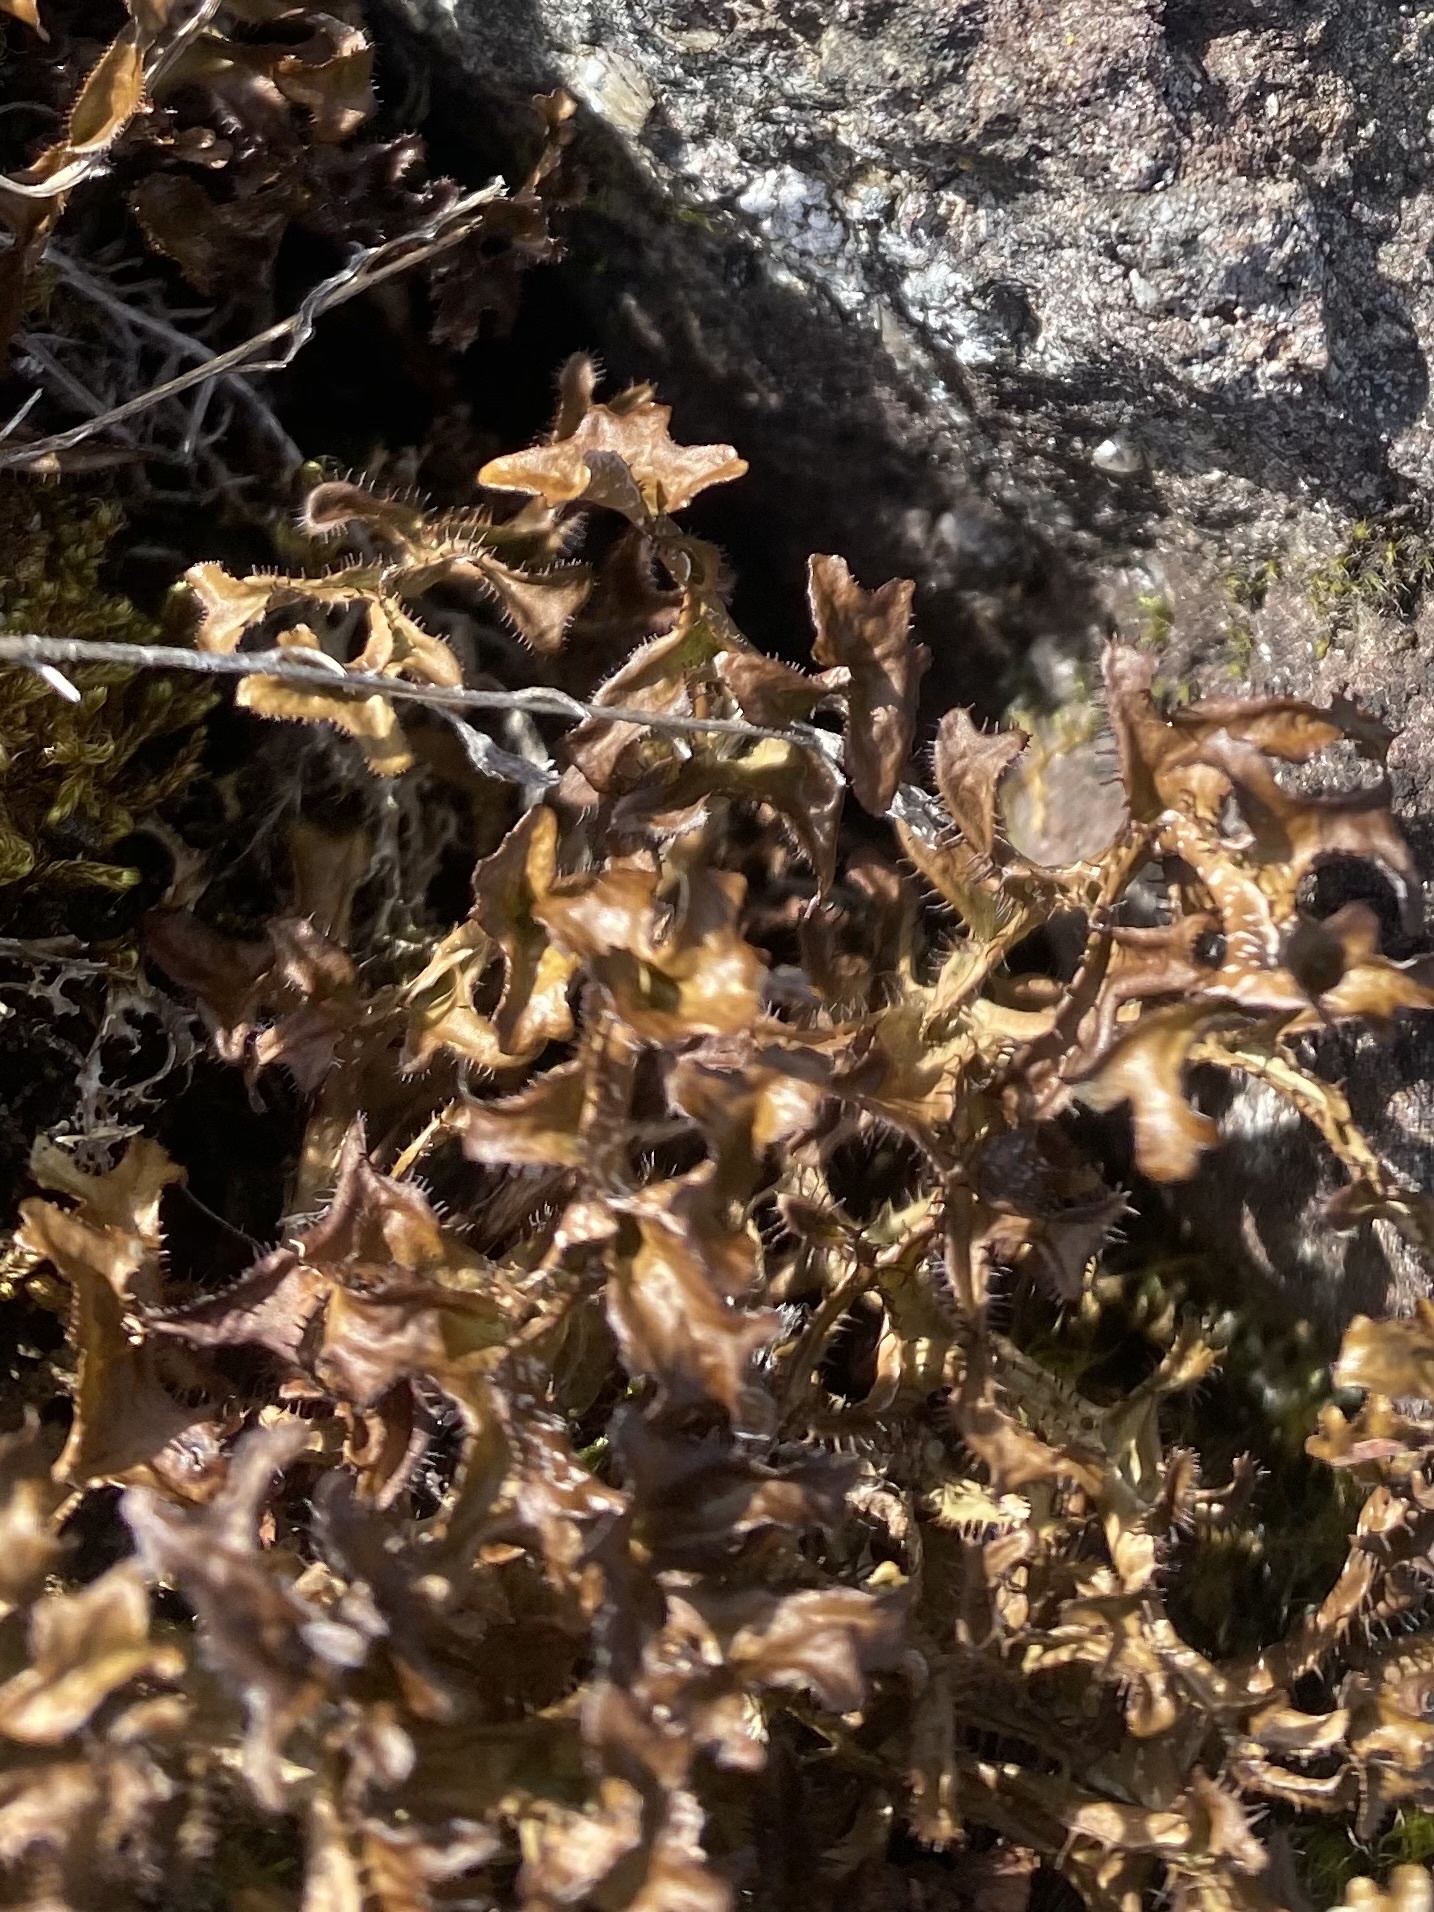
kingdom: Fungi
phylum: Ascomycota
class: Lecanoromycetes
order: Lecanorales
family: Parmeliaceae
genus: Cetraria
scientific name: Cetraria islandica
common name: Iceland lichen
